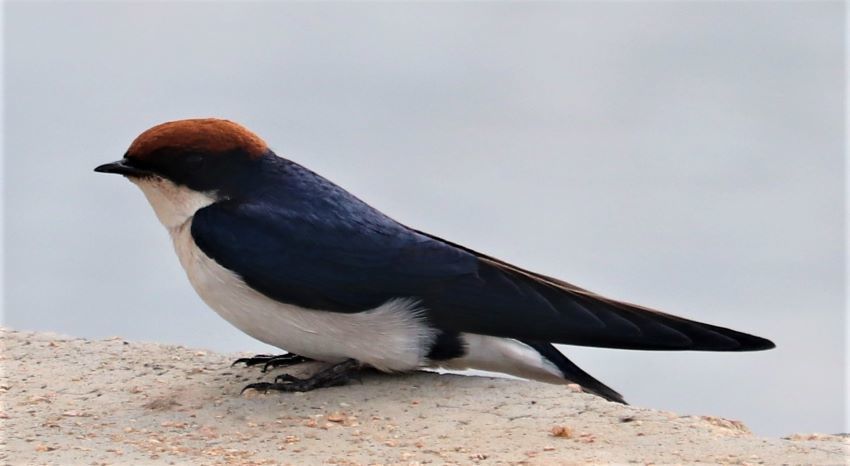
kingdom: Animalia
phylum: Chordata
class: Aves
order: Passeriformes
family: Hirundinidae
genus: Hirundo
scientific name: Hirundo smithii
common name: Wire-tailed swallow
